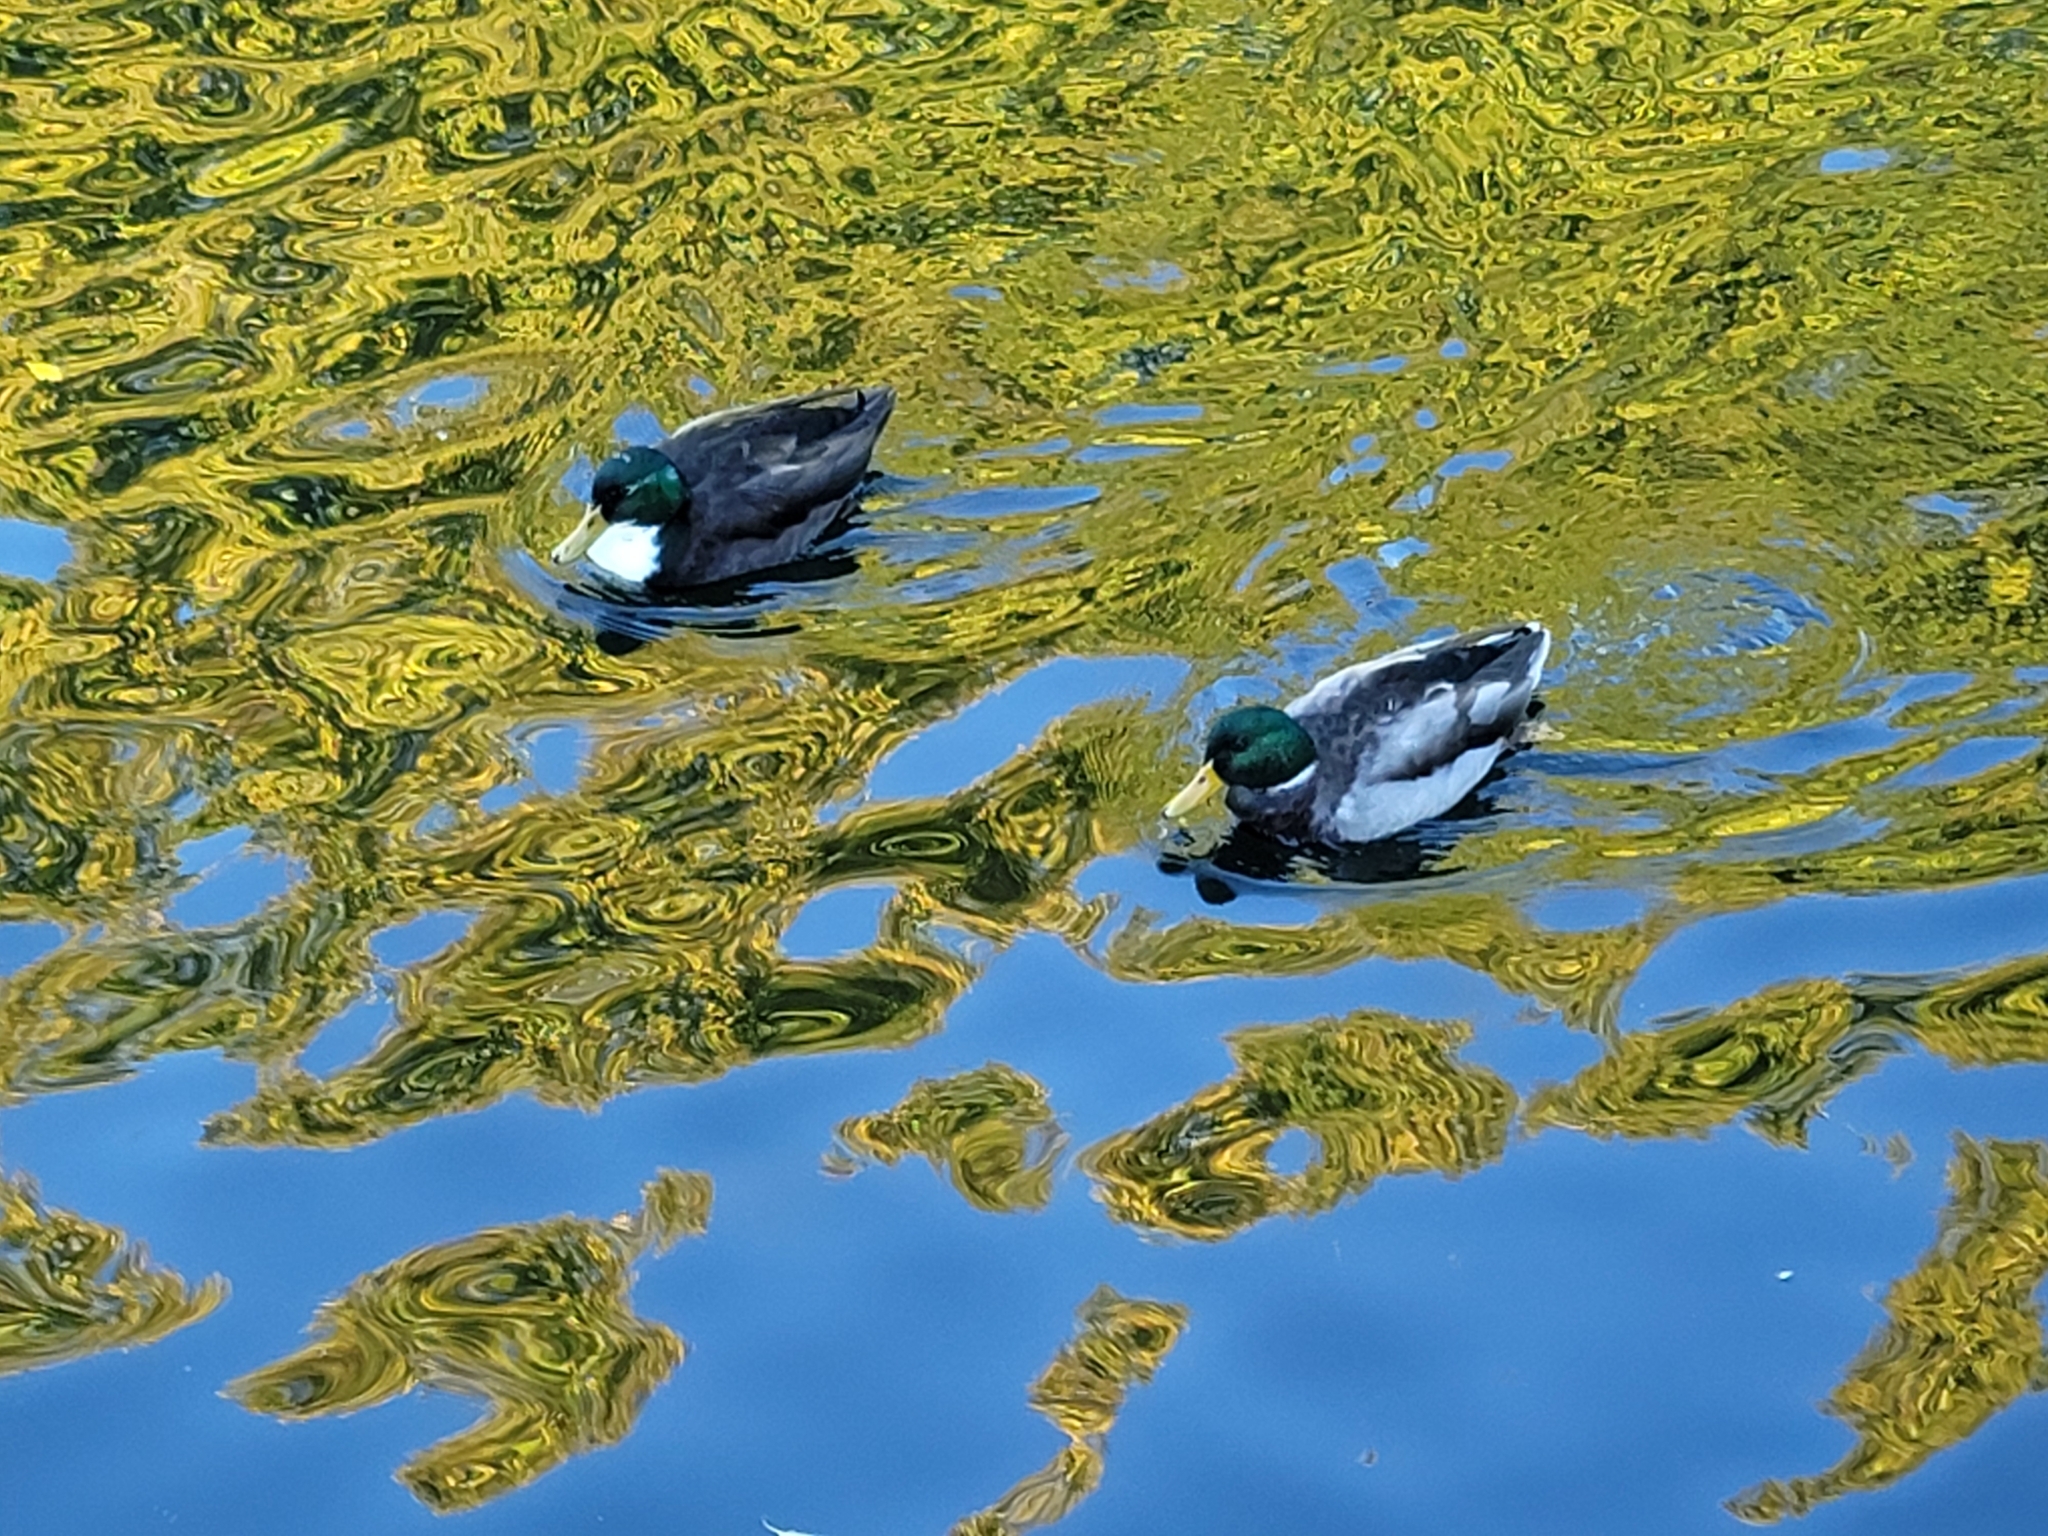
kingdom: Animalia
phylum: Chordata
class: Aves
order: Anseriformes
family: Anatidae
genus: Anas
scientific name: Anas platyrhynchos
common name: Mallard
